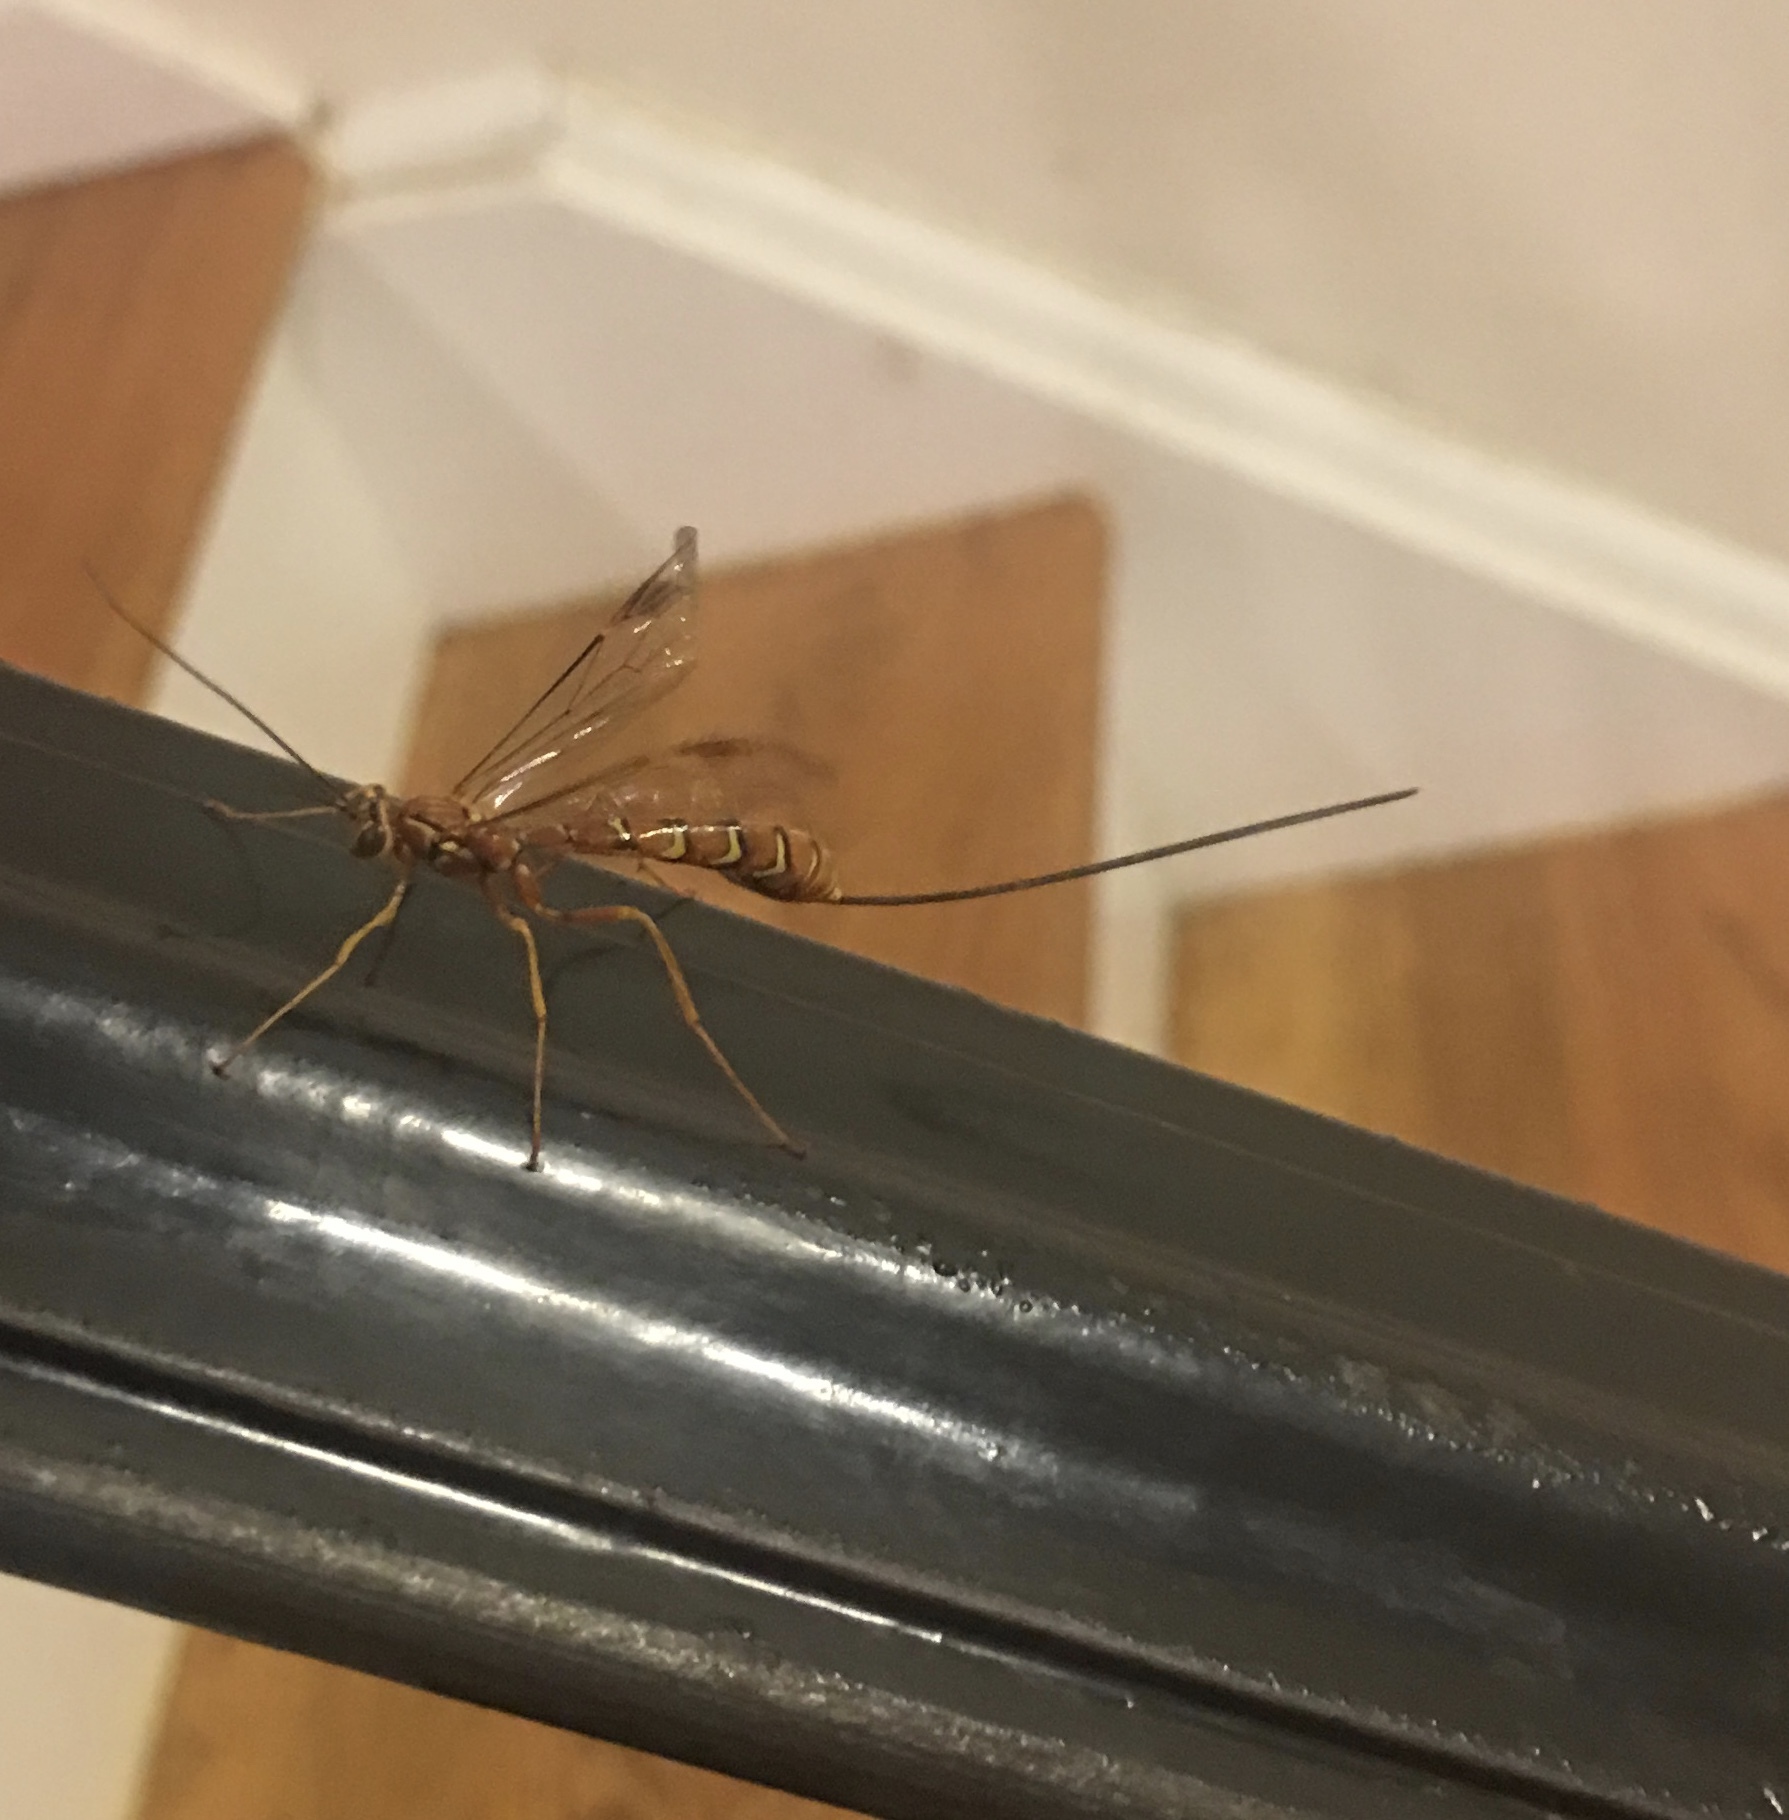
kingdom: Animalia
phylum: Arthropoda
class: Insecta
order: Hymenoptera
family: Ichneumonidae
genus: Megarhyssa
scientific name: Megarhyssa greenei
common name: Greene's giant ichneumonid wasp
